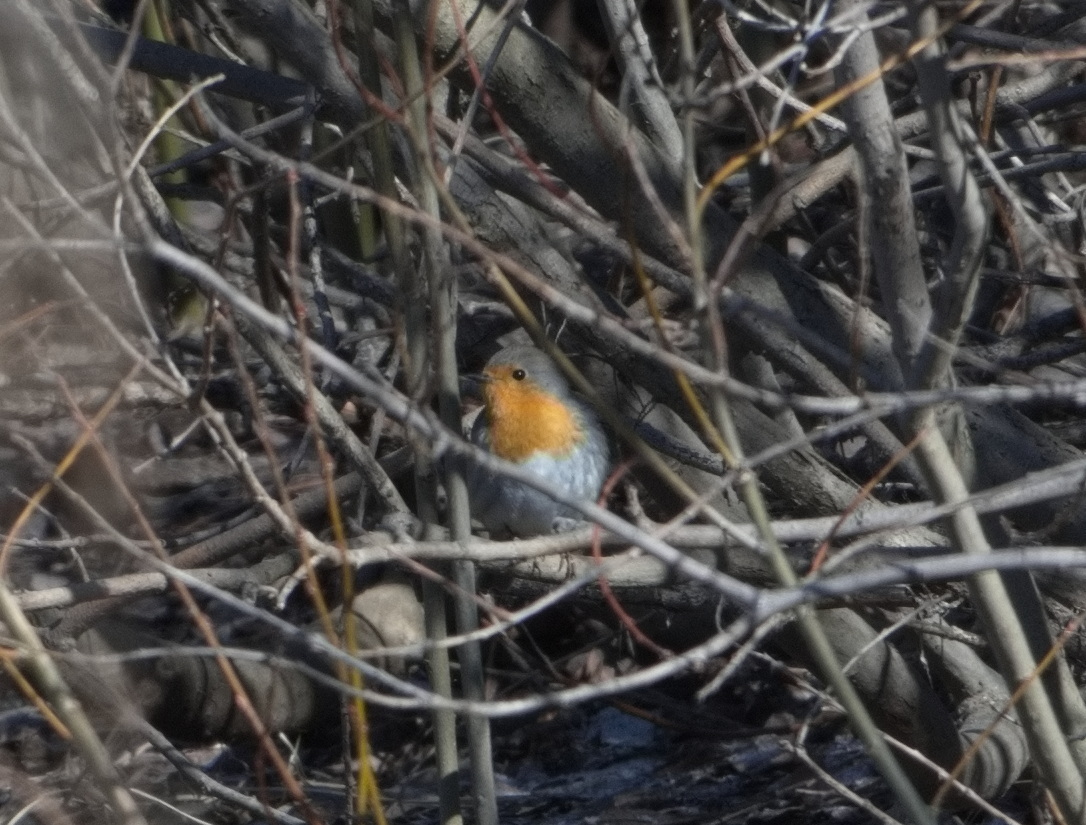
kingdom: Animalia
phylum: Chordata
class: Aves
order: Passeriformes
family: Muscicapidae
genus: Erithacus
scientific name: Erithacus rubecula
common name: European robin
